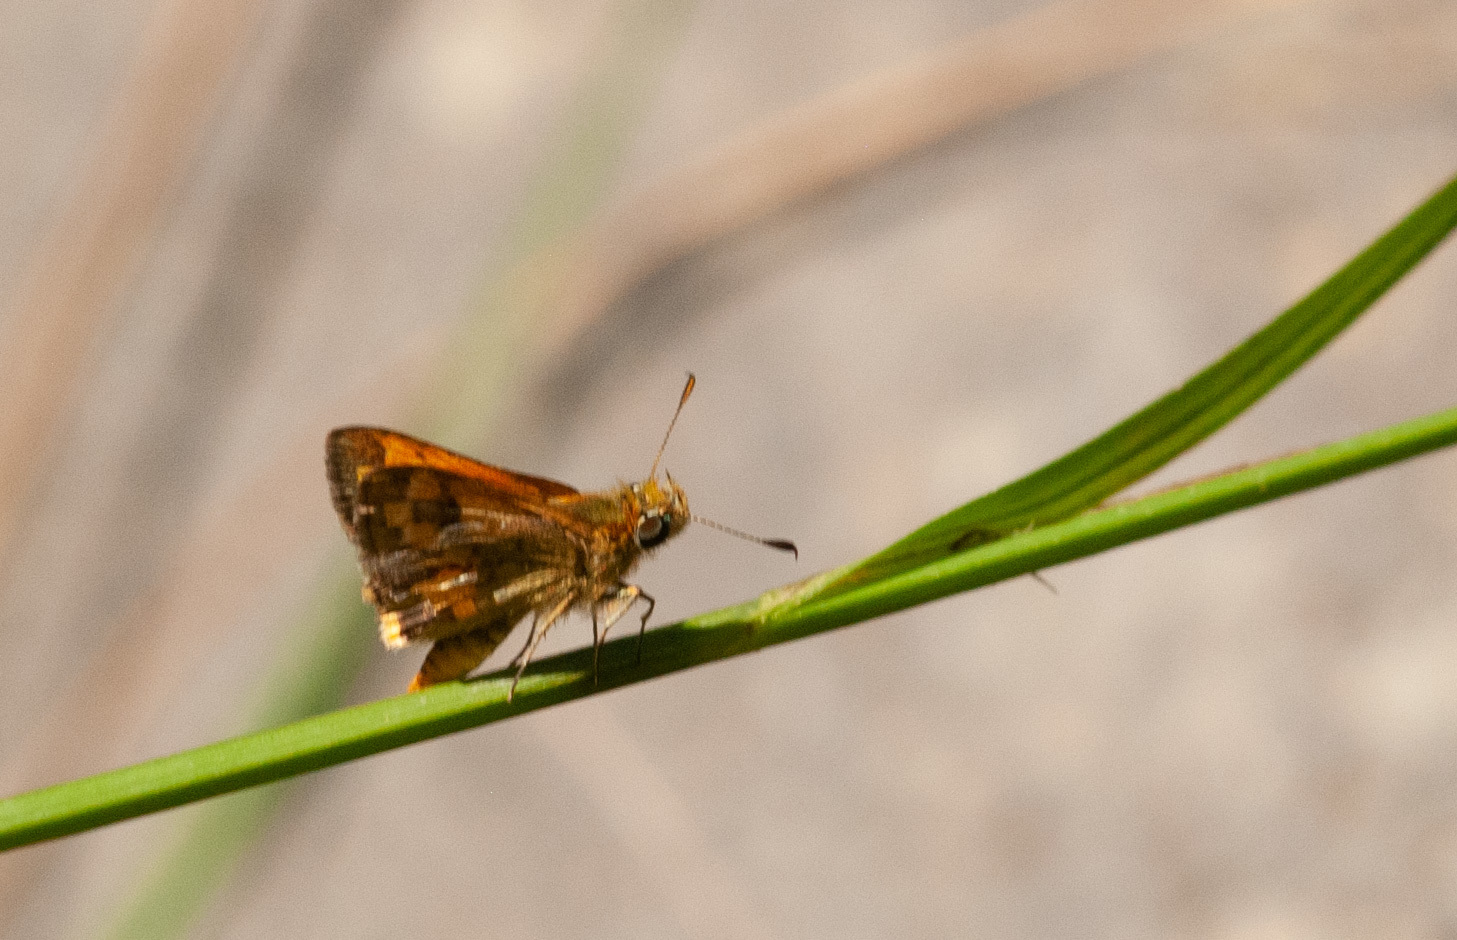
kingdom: Animalia
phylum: Arthropoda
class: Insecta
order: Lepidoptera
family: Hesperiidae
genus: Ocybadistes
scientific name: Ocybadistes walkeri
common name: Yellow-banded dart
